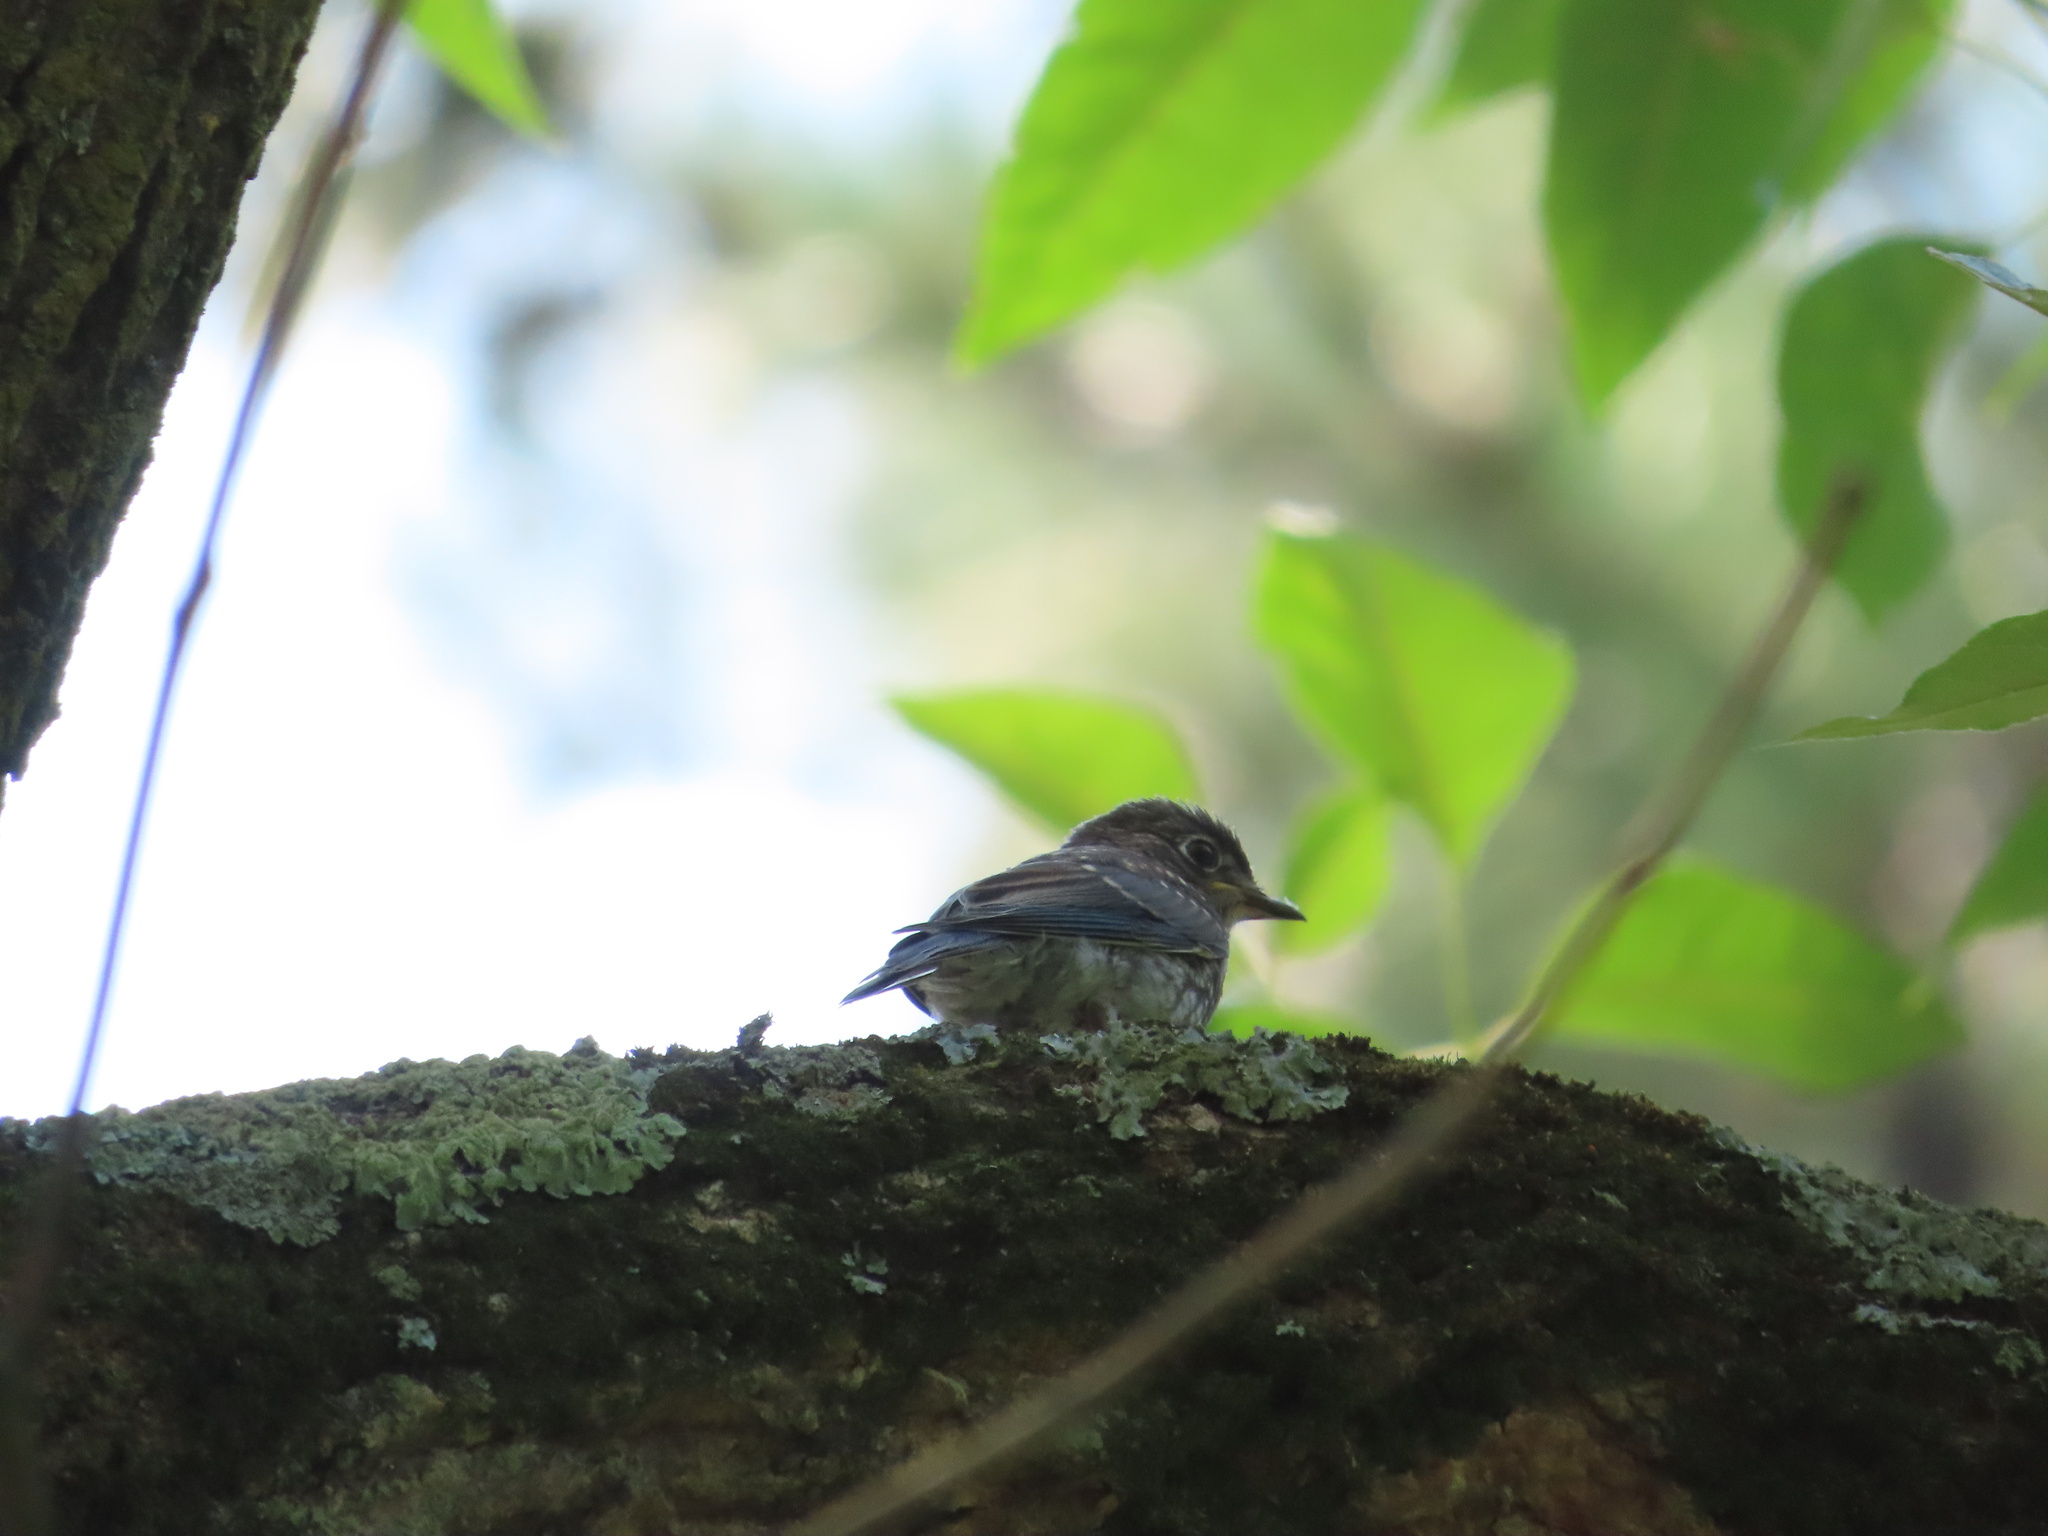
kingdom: Animalia
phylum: Chordata
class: Aves
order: Passeriformes
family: Turdidae
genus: Sialia
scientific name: Sialia sialis
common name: Eastern bluebird
